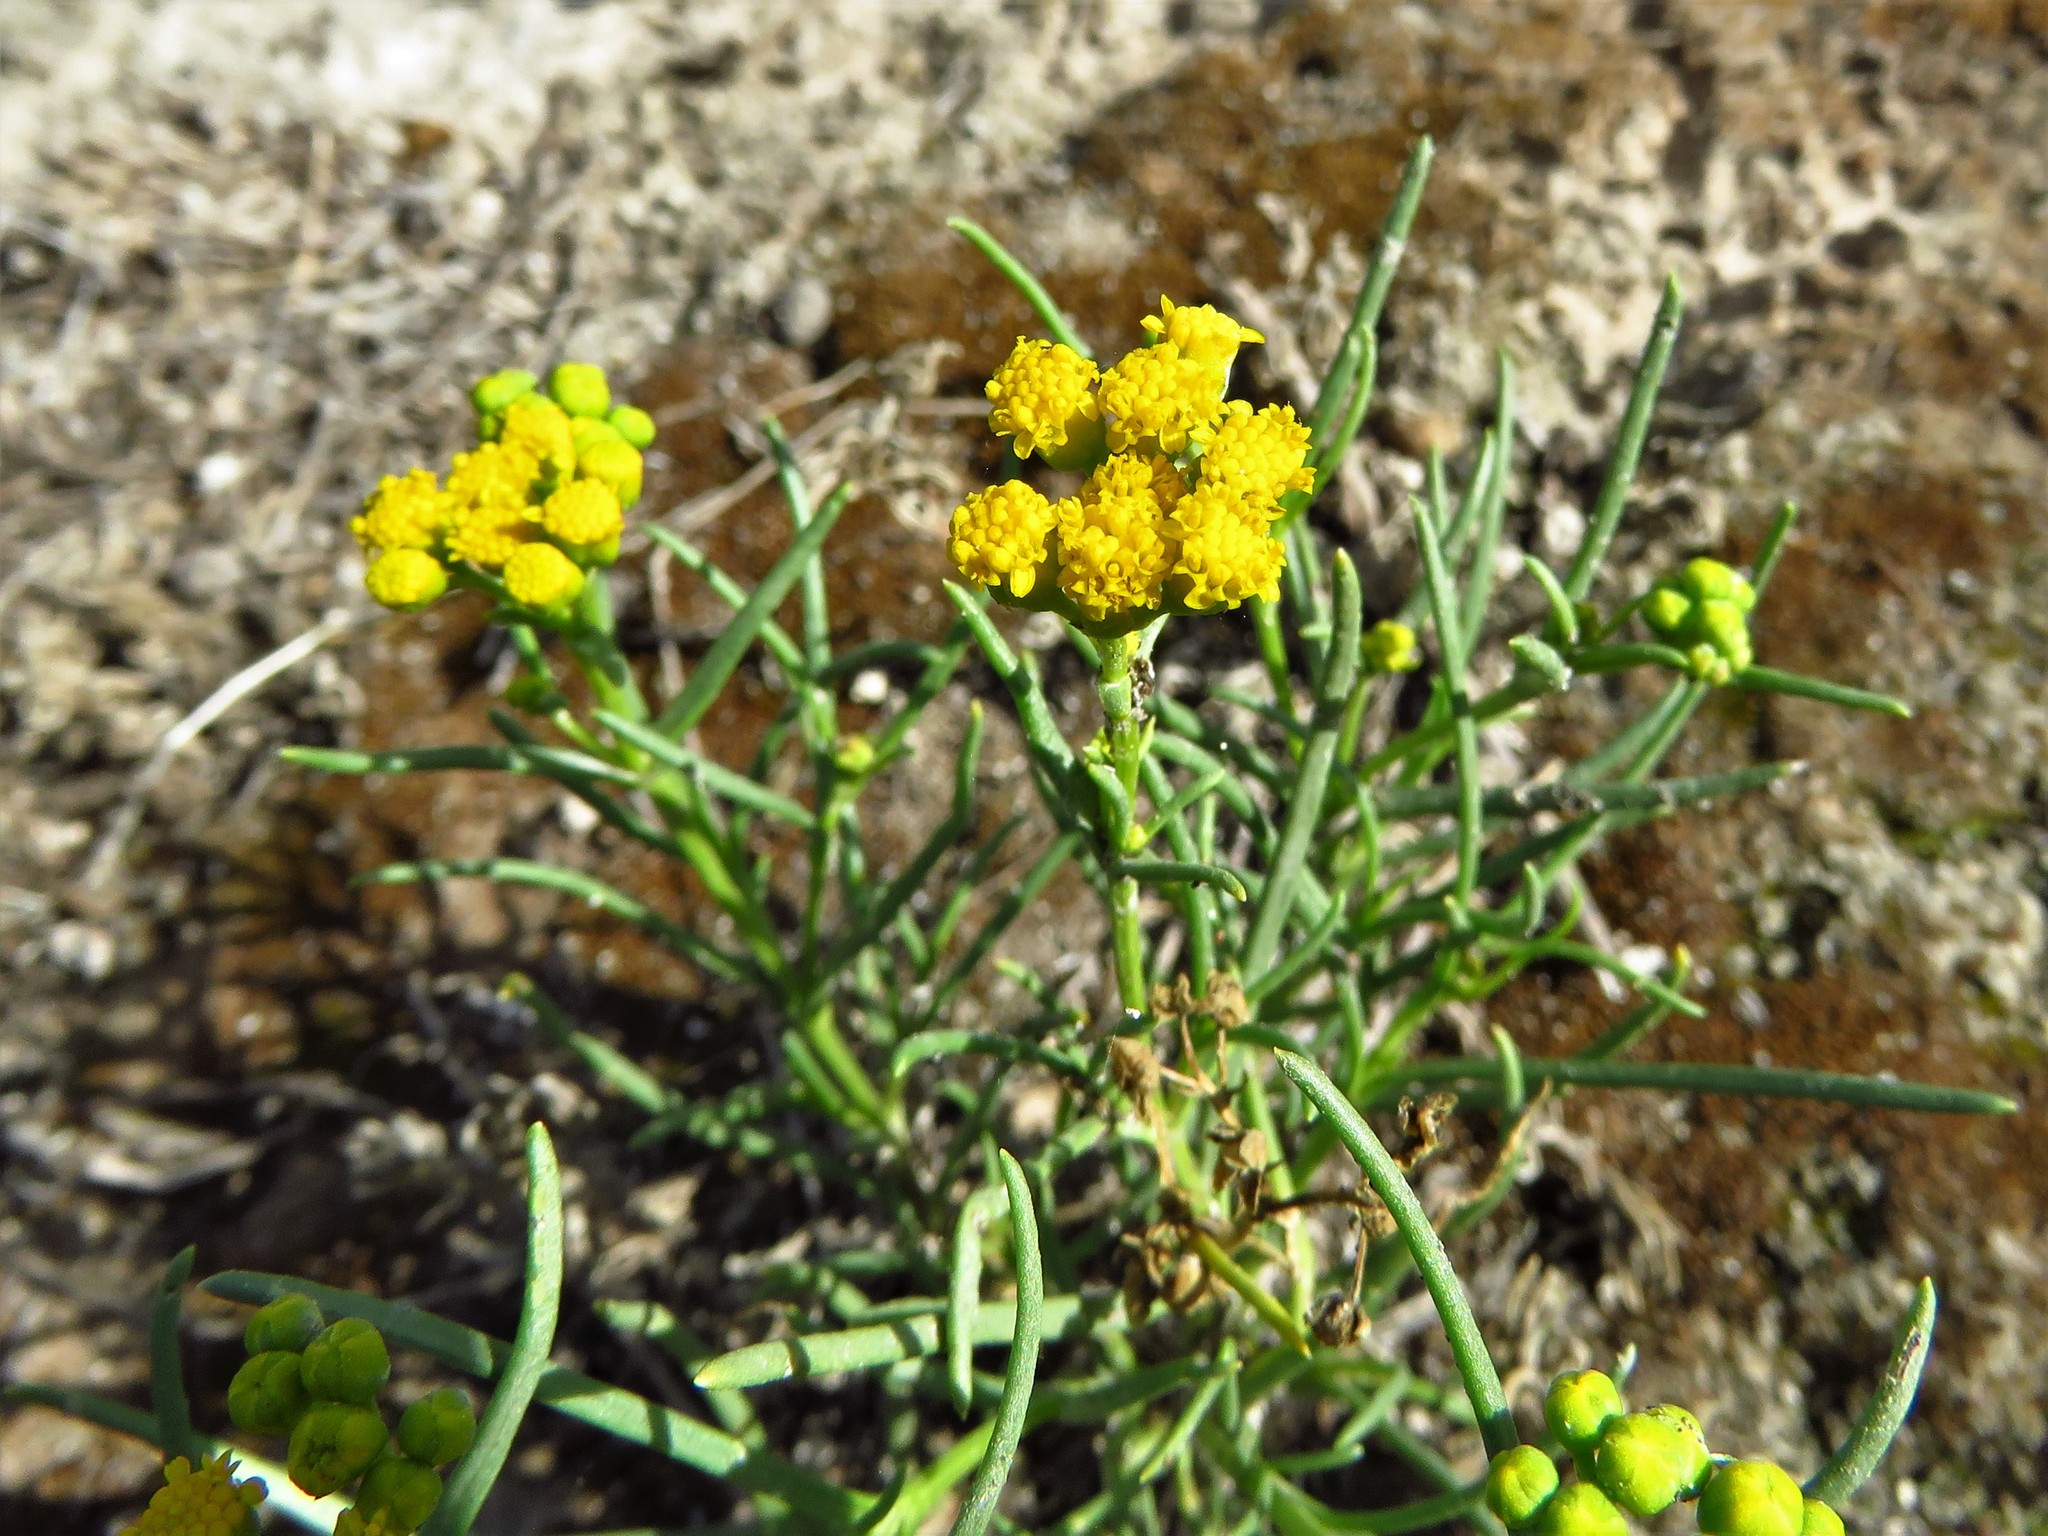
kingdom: Plantae
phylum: Tracheophyta
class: Magnoliopsida
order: Asterales
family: Asteraceae
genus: Sartwellia
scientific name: Sartwellia mexicana
